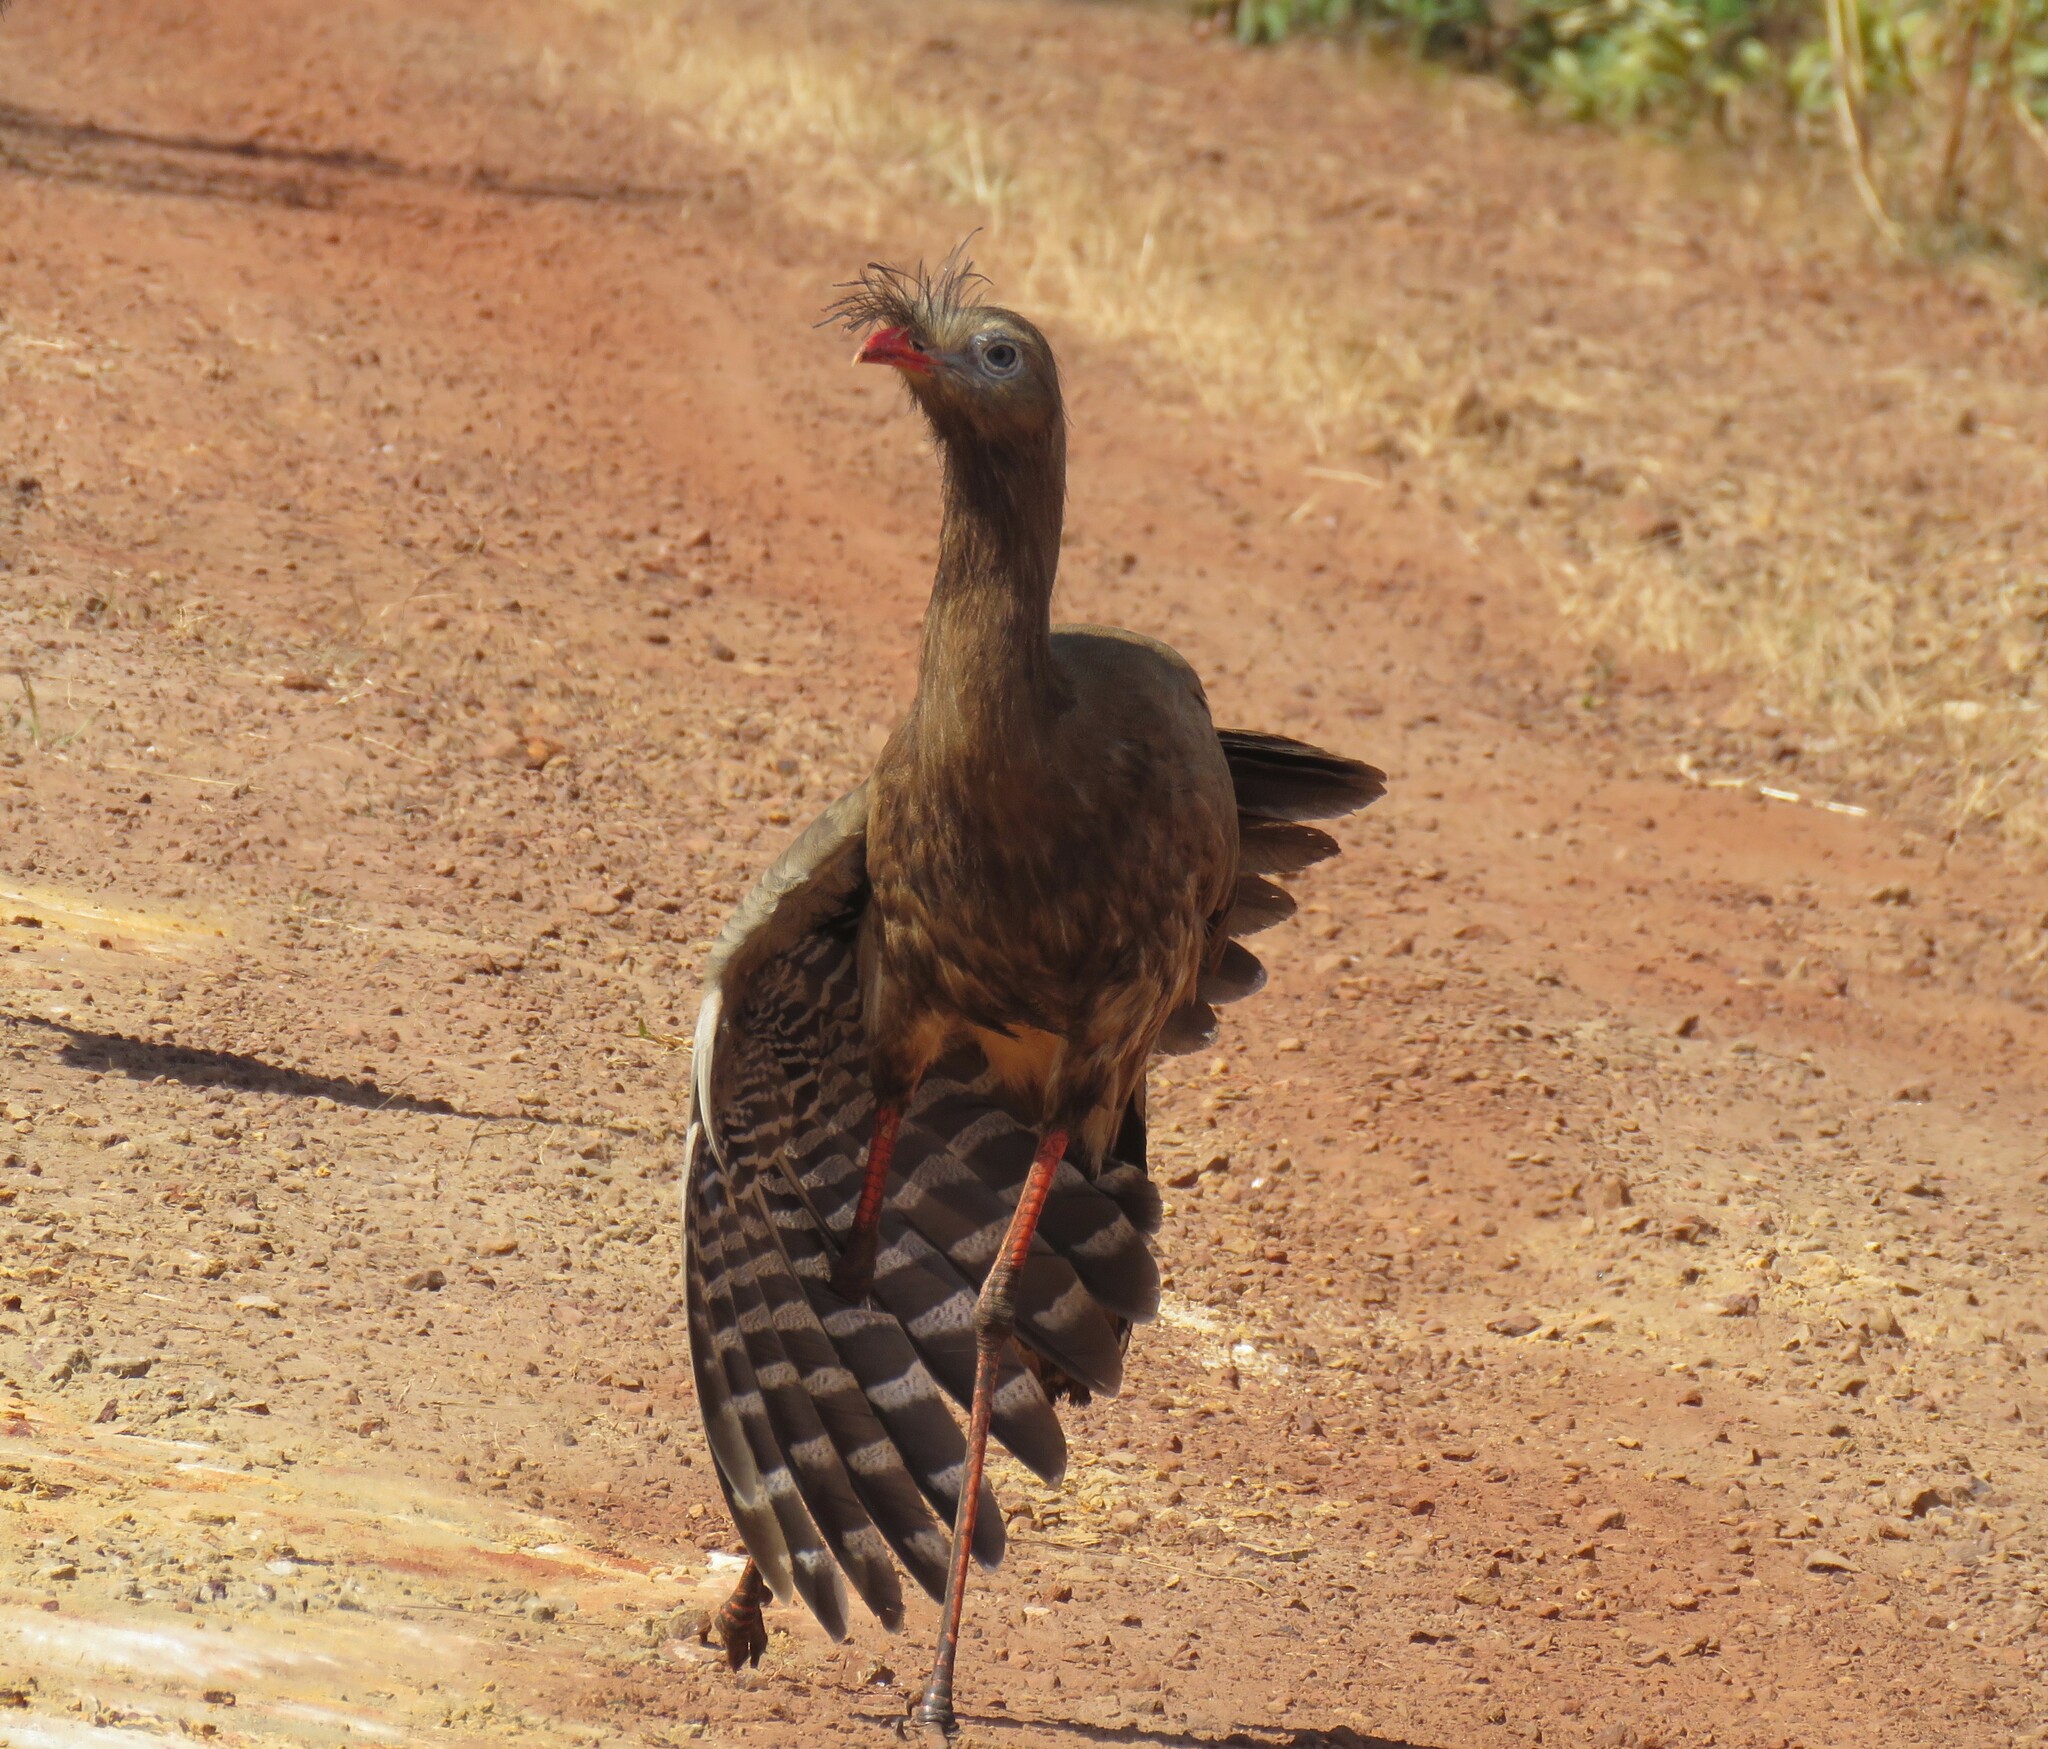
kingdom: Animalia
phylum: Chordata
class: Aves
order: Cariamiformes
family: Cariamidae
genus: Cariama
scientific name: Cariama cristata
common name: Red-legged seriema
